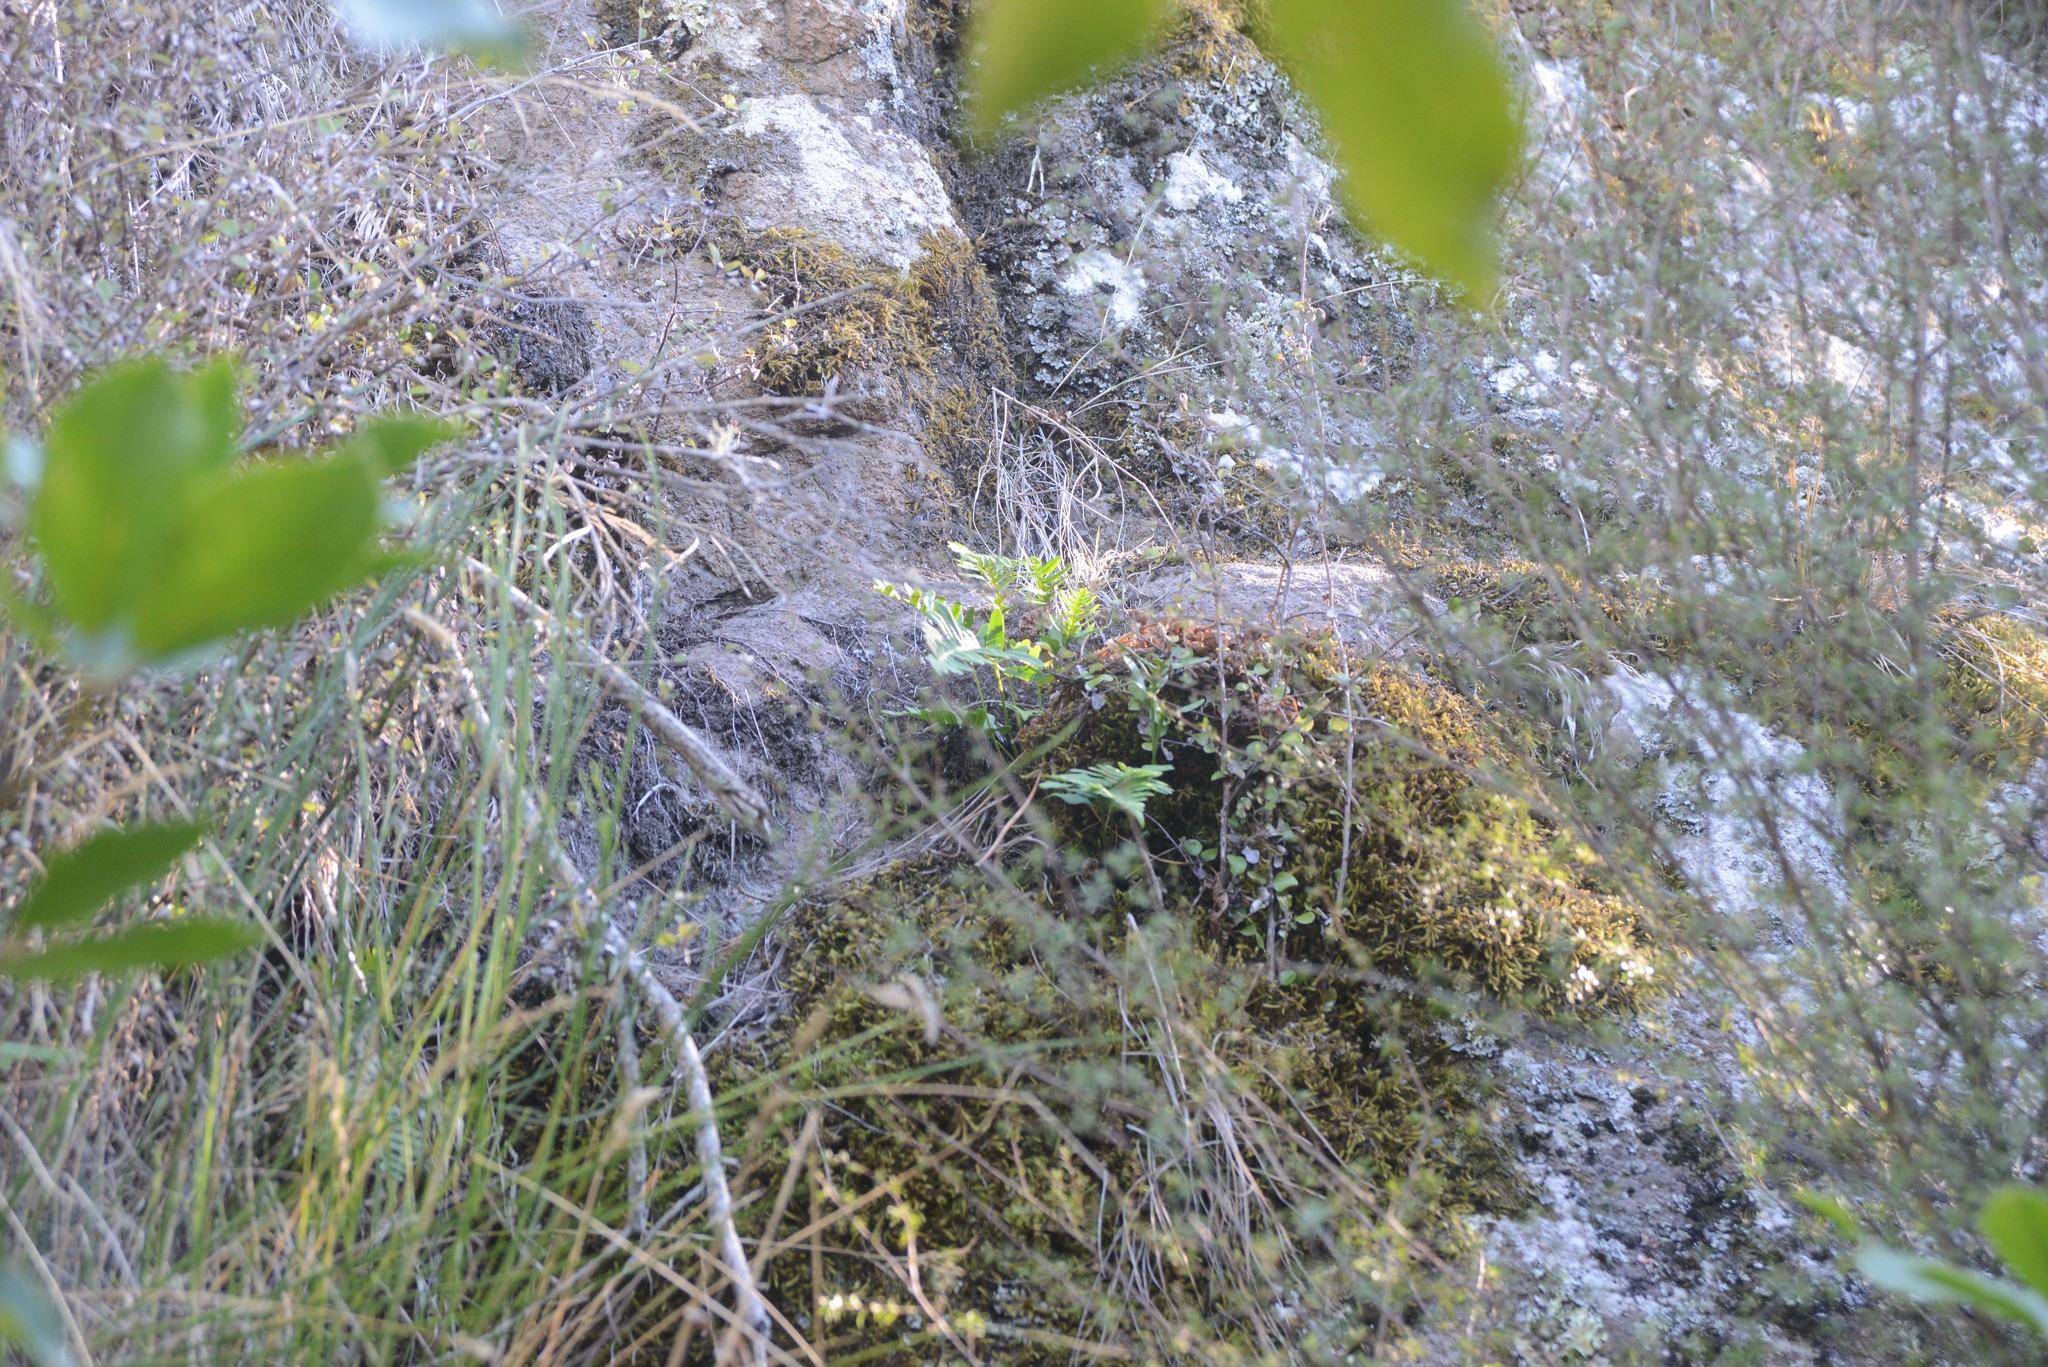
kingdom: Plantae
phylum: Tracheophyta
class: Polypodiopsida
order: Polypodiales
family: Polypodiaceae
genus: Polypodium
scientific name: Polypodium vulgare
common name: Common polypody
